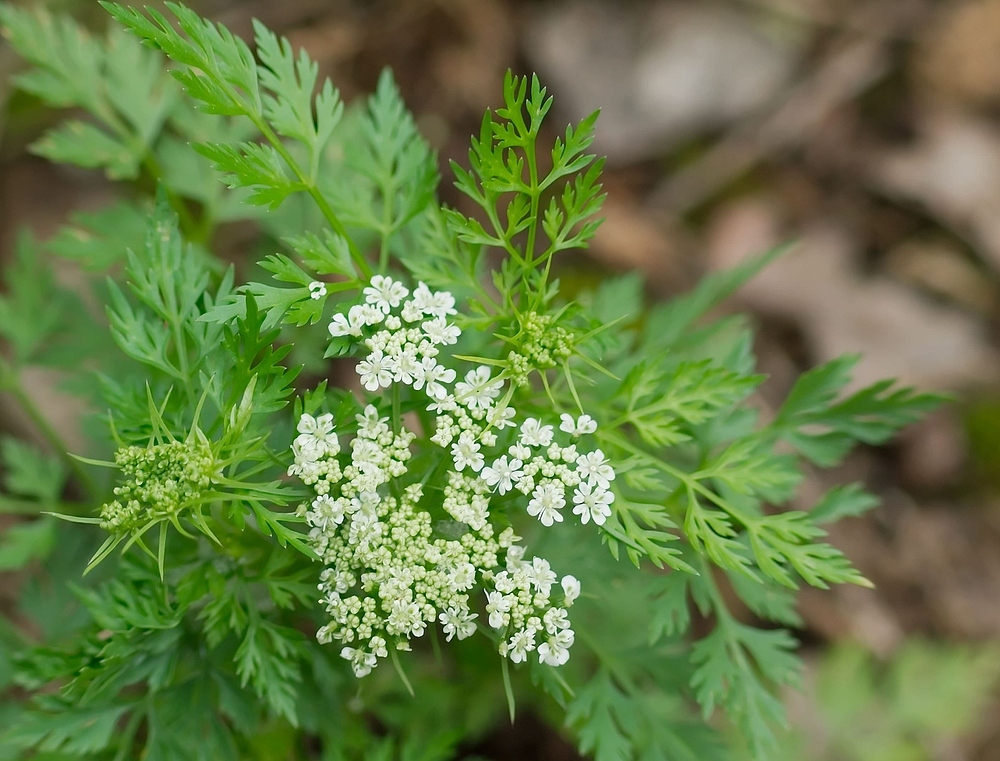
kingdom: Plantae
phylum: Tracheophyta
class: Magnoliopsida
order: Apiales
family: Apiaceae
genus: Aethusa
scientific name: Aethusa cynapium
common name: Fool's parsley
